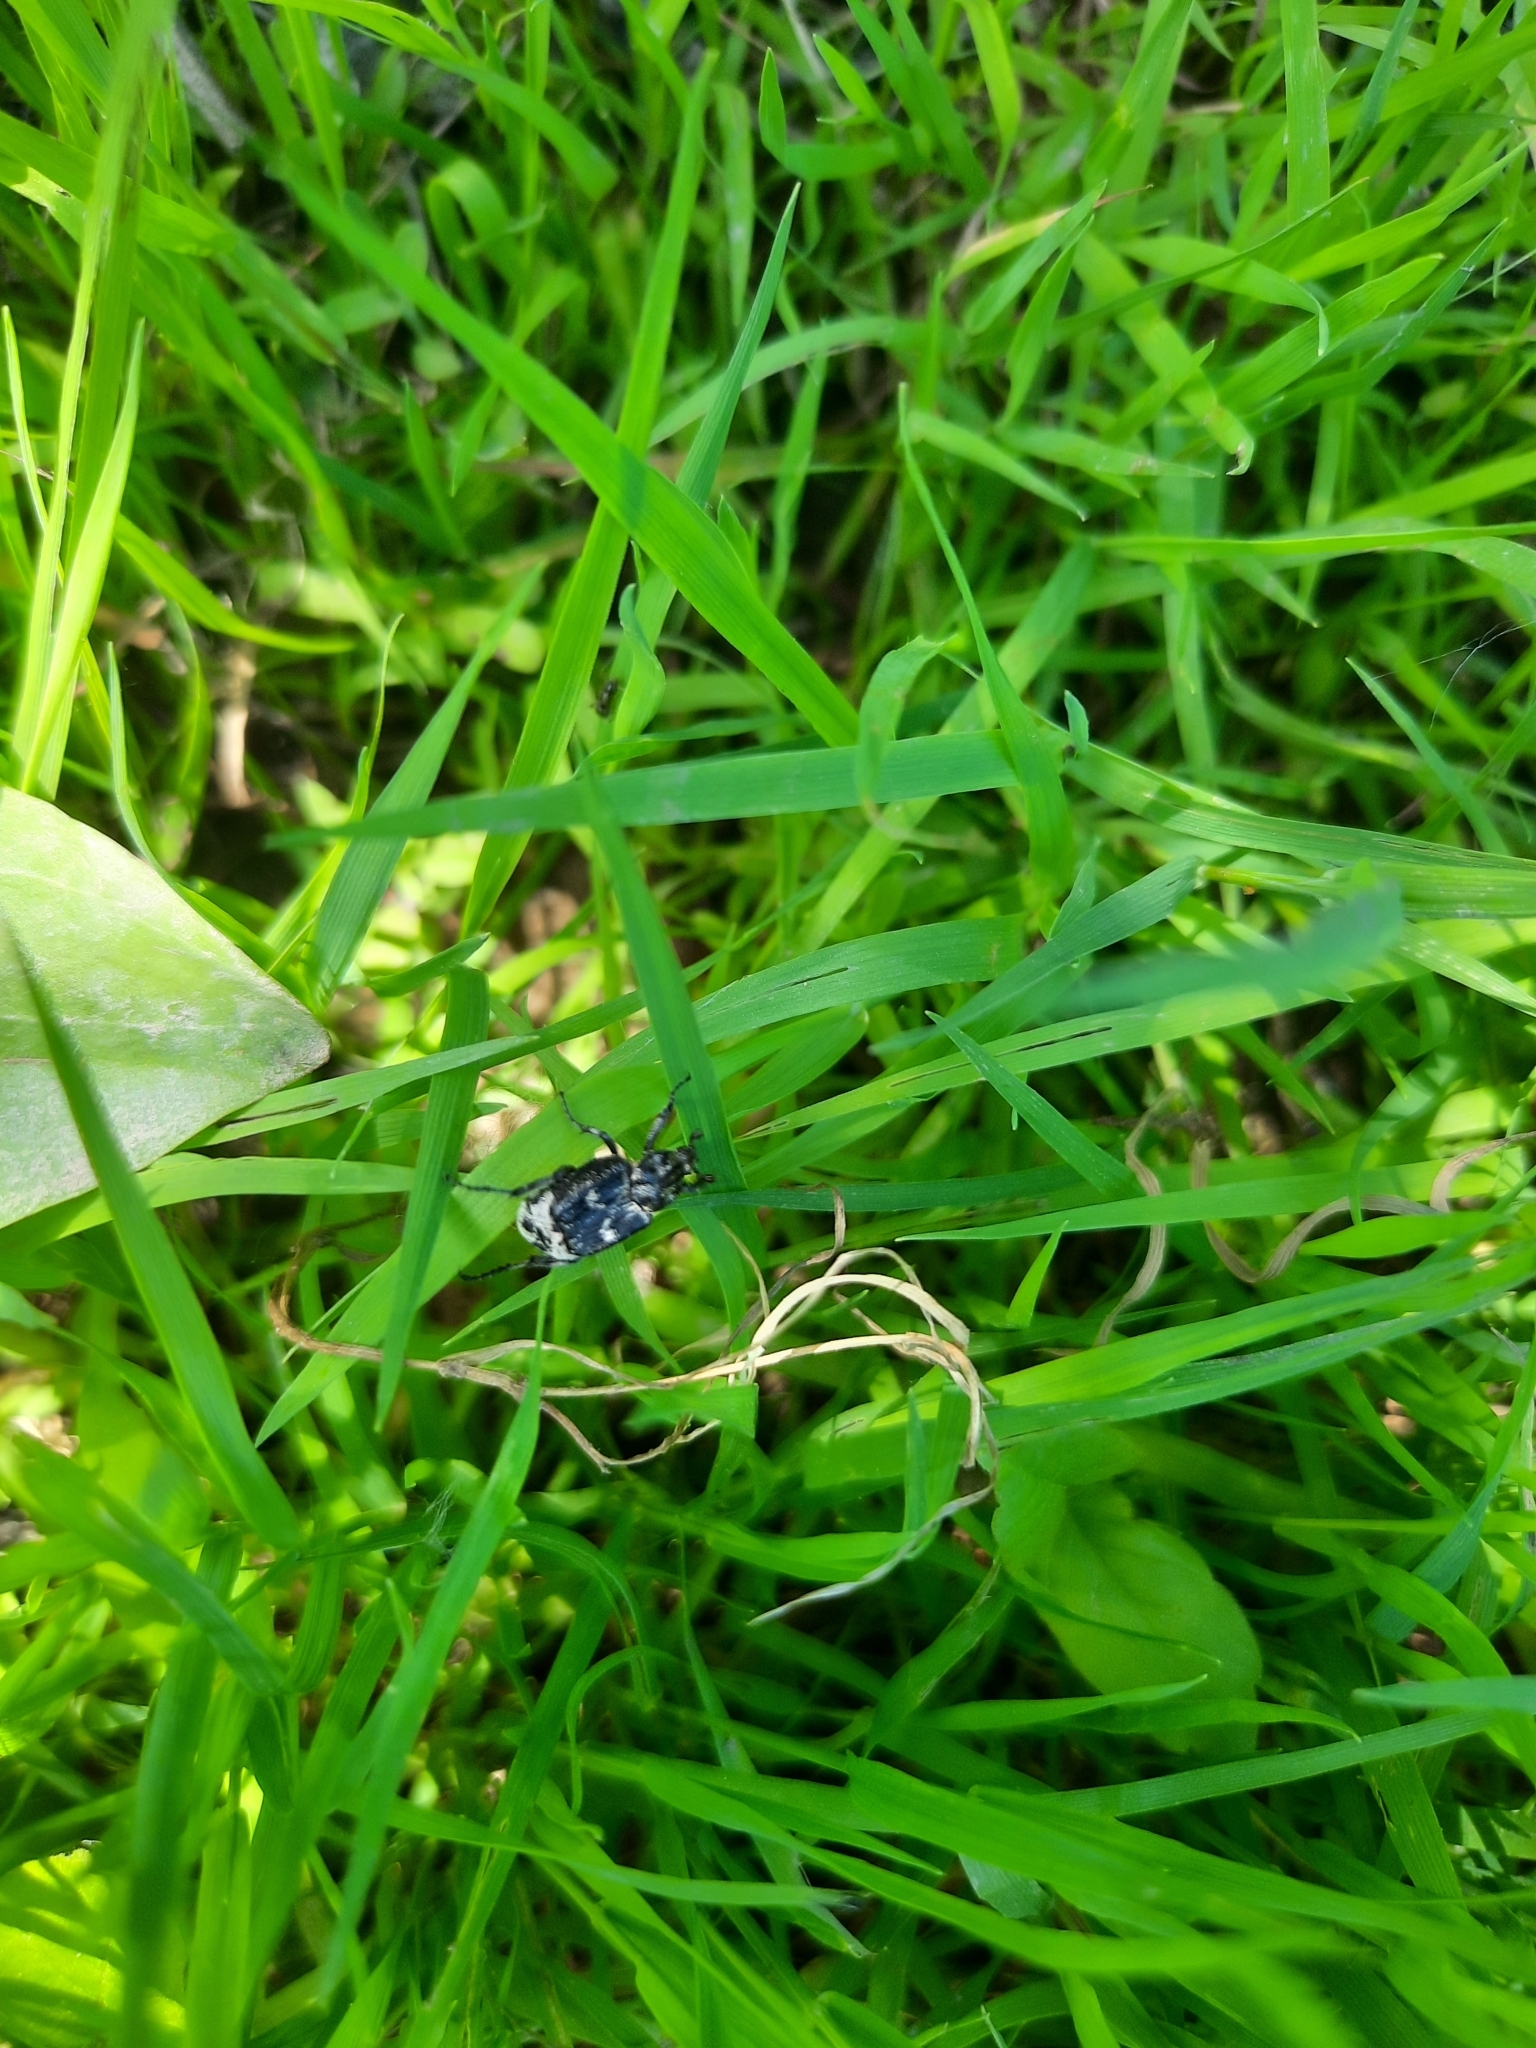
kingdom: Animalia
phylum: Arthropoda
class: Insecta
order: Coleoptera
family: Scarabaeidae
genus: Valgus
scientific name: Valgus hemipterus
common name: Bug flower chafer
